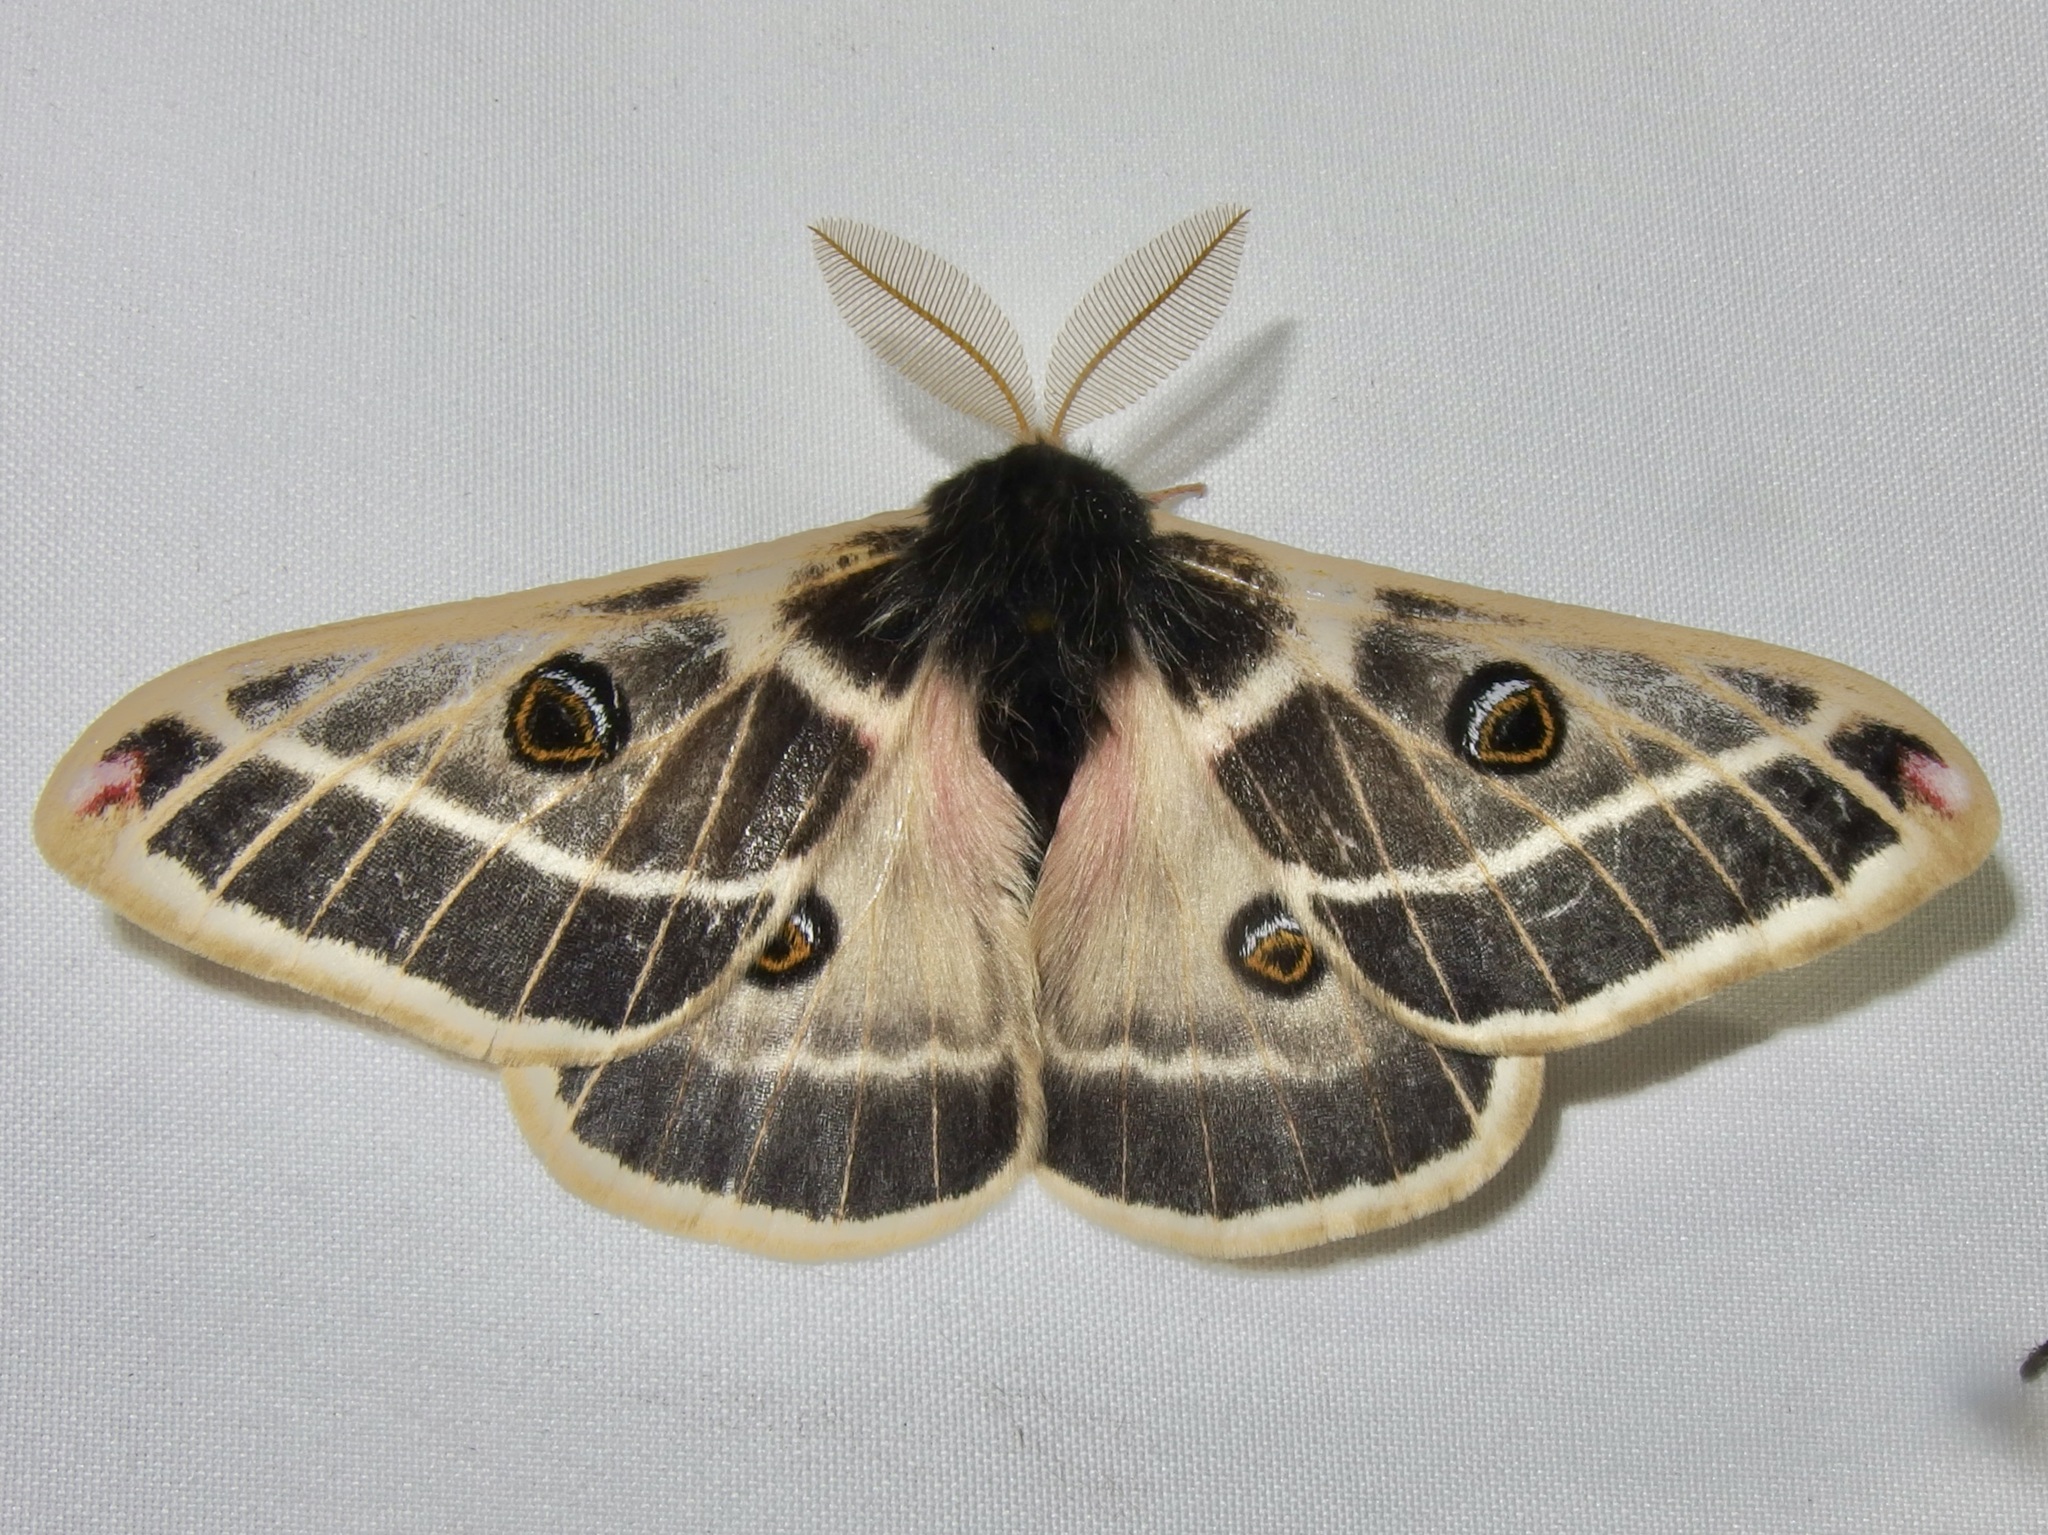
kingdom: Animalia
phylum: Arthropoda
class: Insecta
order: Lepidoptera
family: Saturniidae
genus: Agapema
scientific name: Agapema homogena
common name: Rocky mountain agapema
